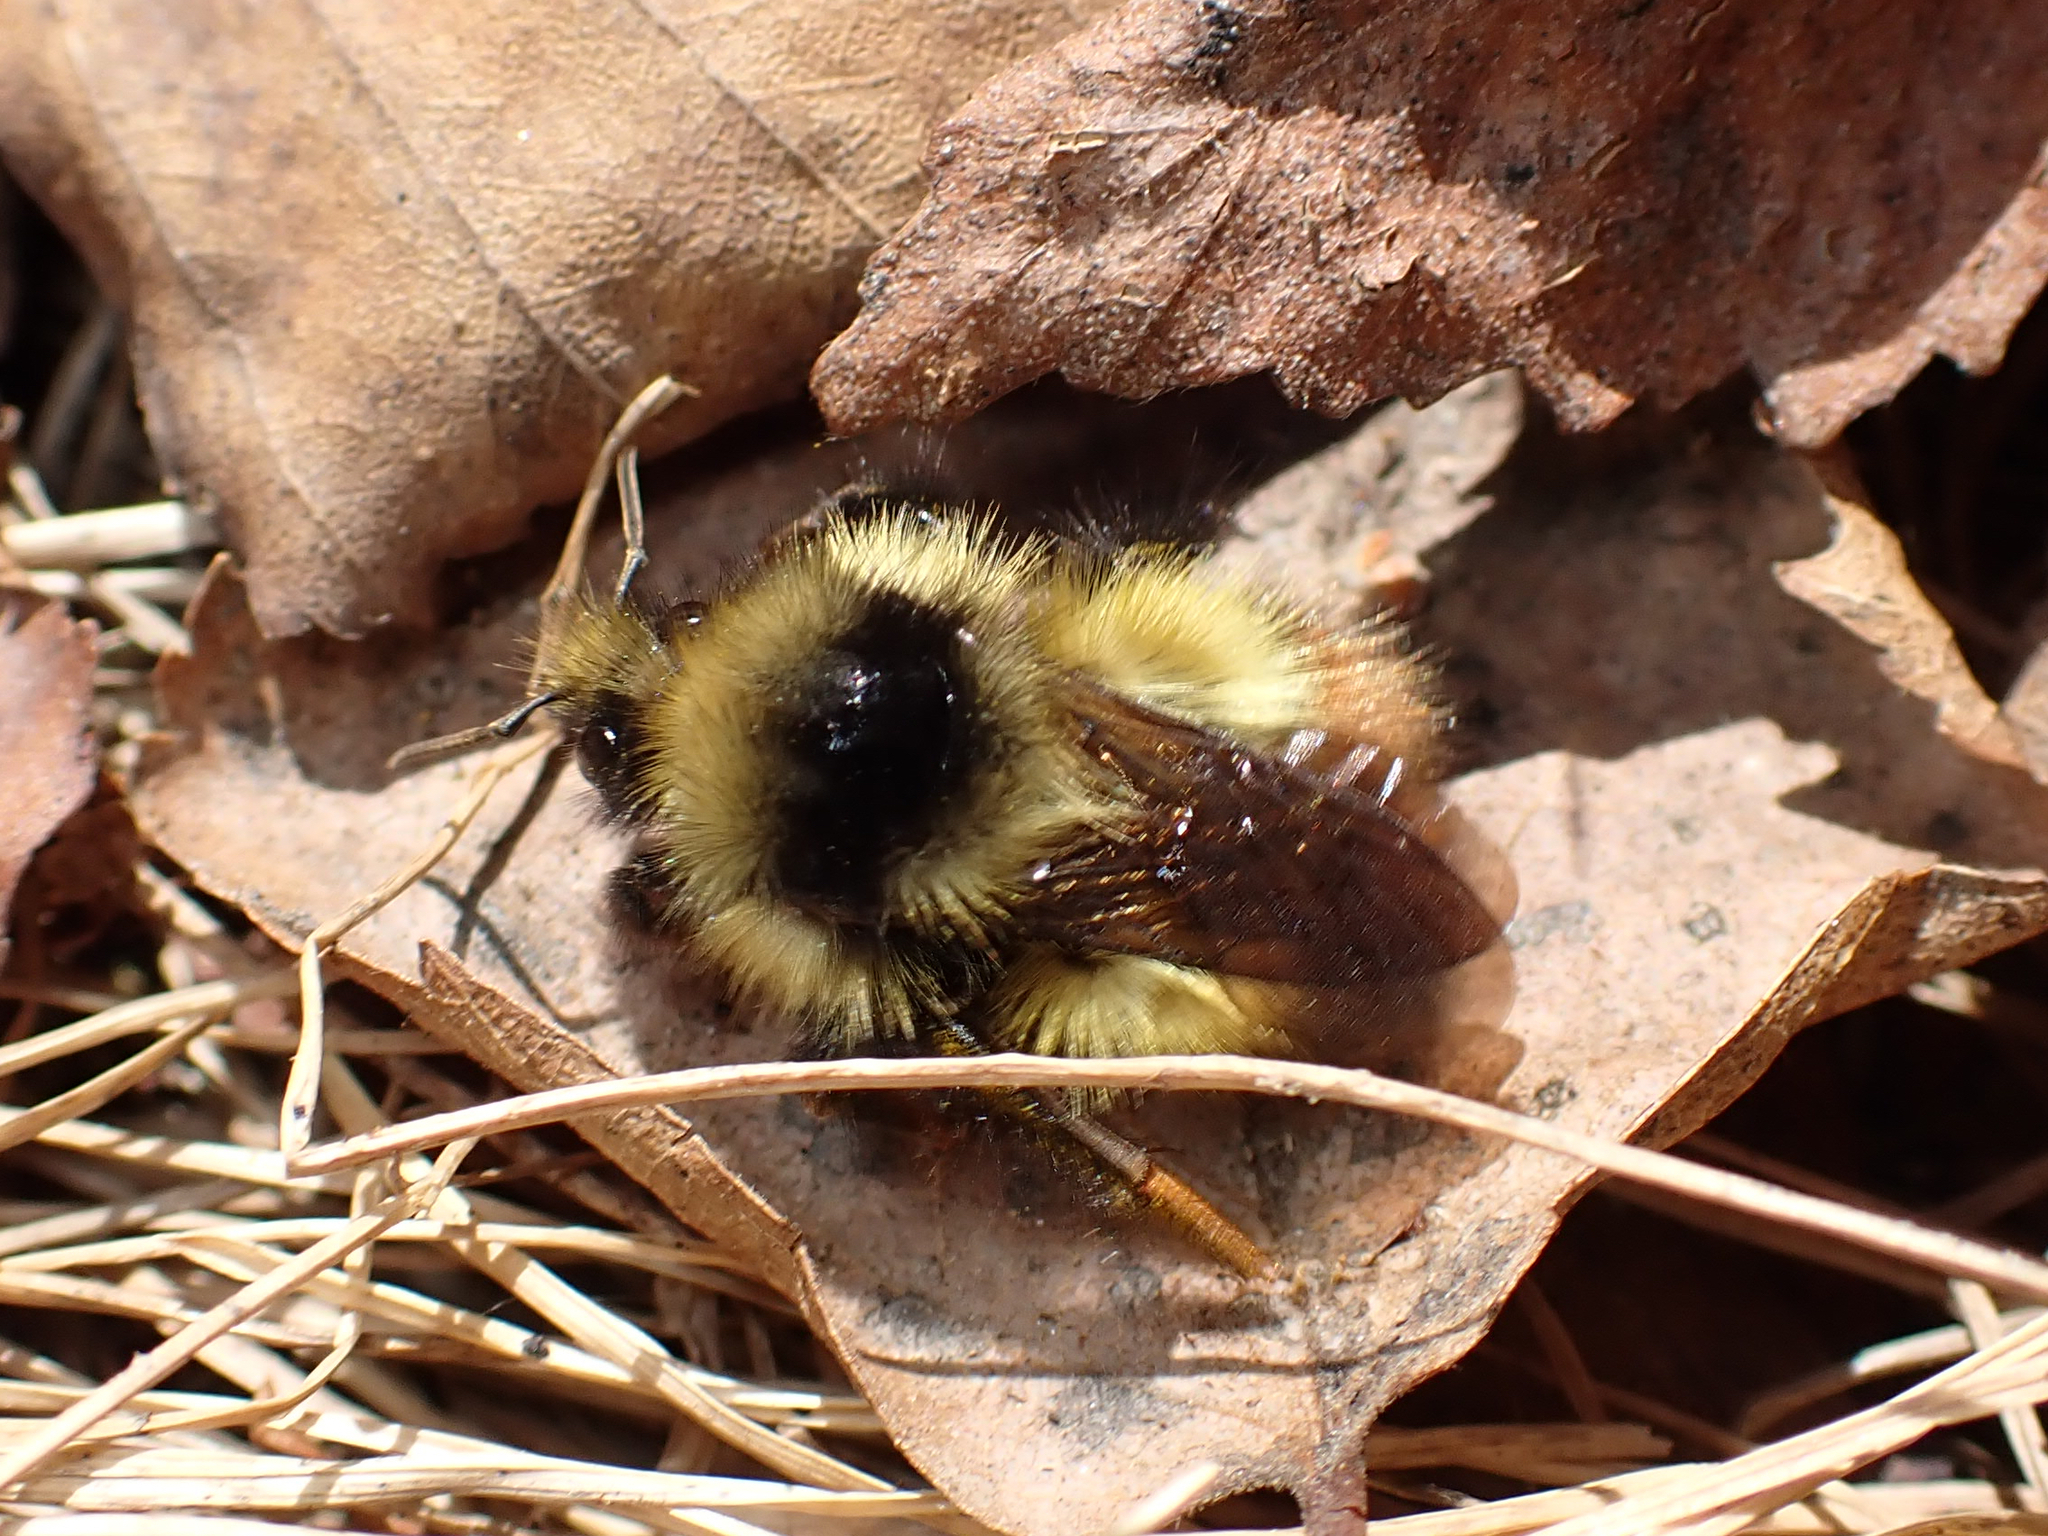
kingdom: Animalia
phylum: Arthropoda
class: Insecta
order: Hymenoptera
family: Apidae
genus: Bombus
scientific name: Bombus flavifrons
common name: Yellow head bumble bee
